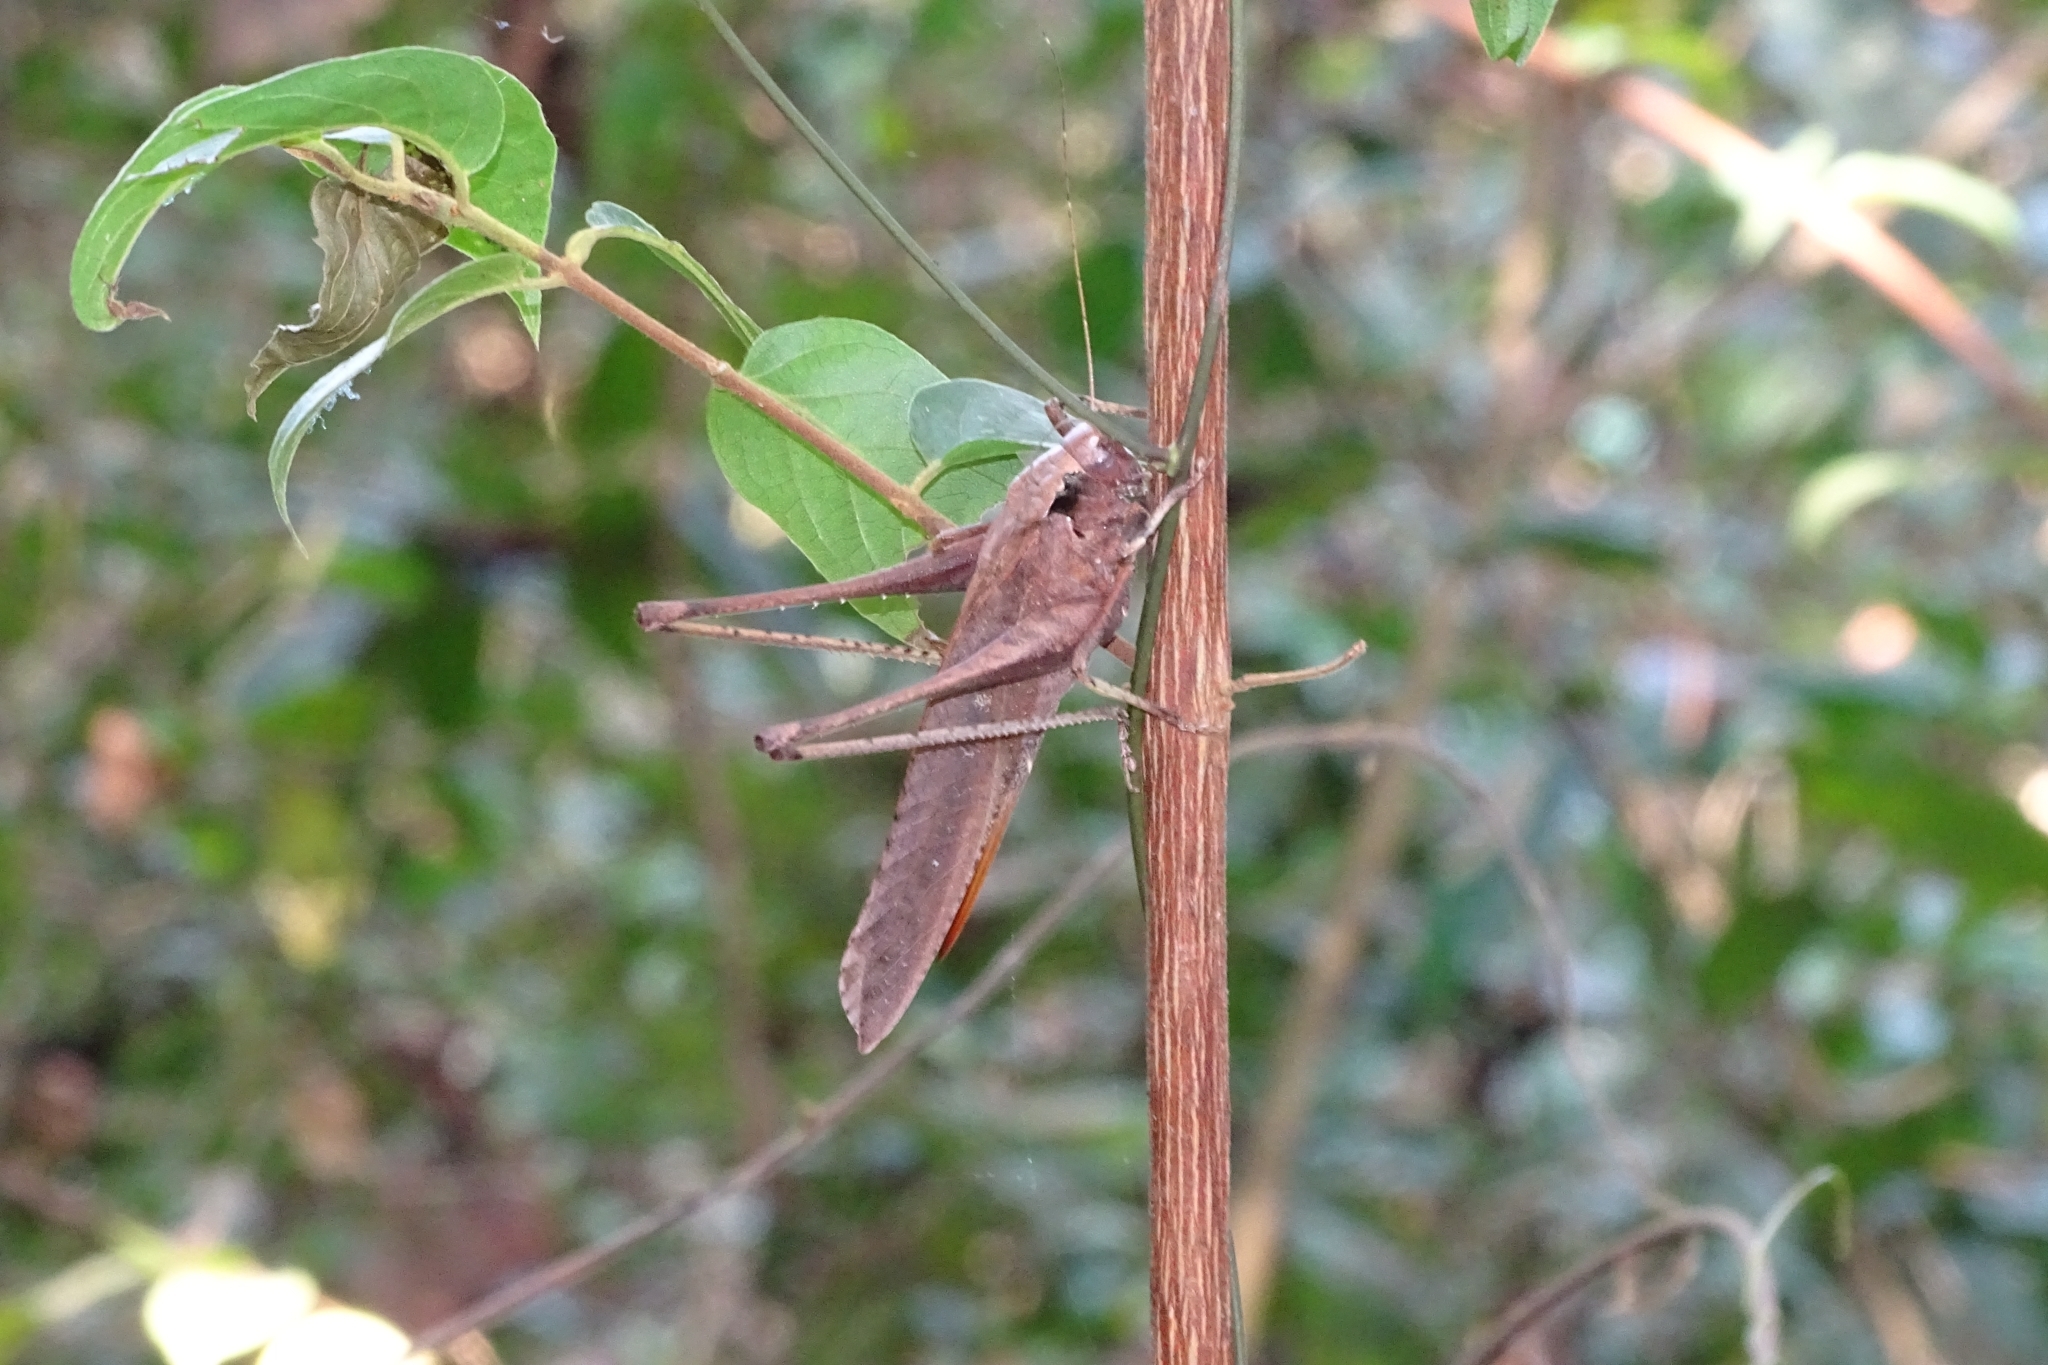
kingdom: Animalia
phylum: Arthropoda
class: Insecta
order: Orthoptera
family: Tettigoniidae
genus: Mecopoda
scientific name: Mecopoda elongata
